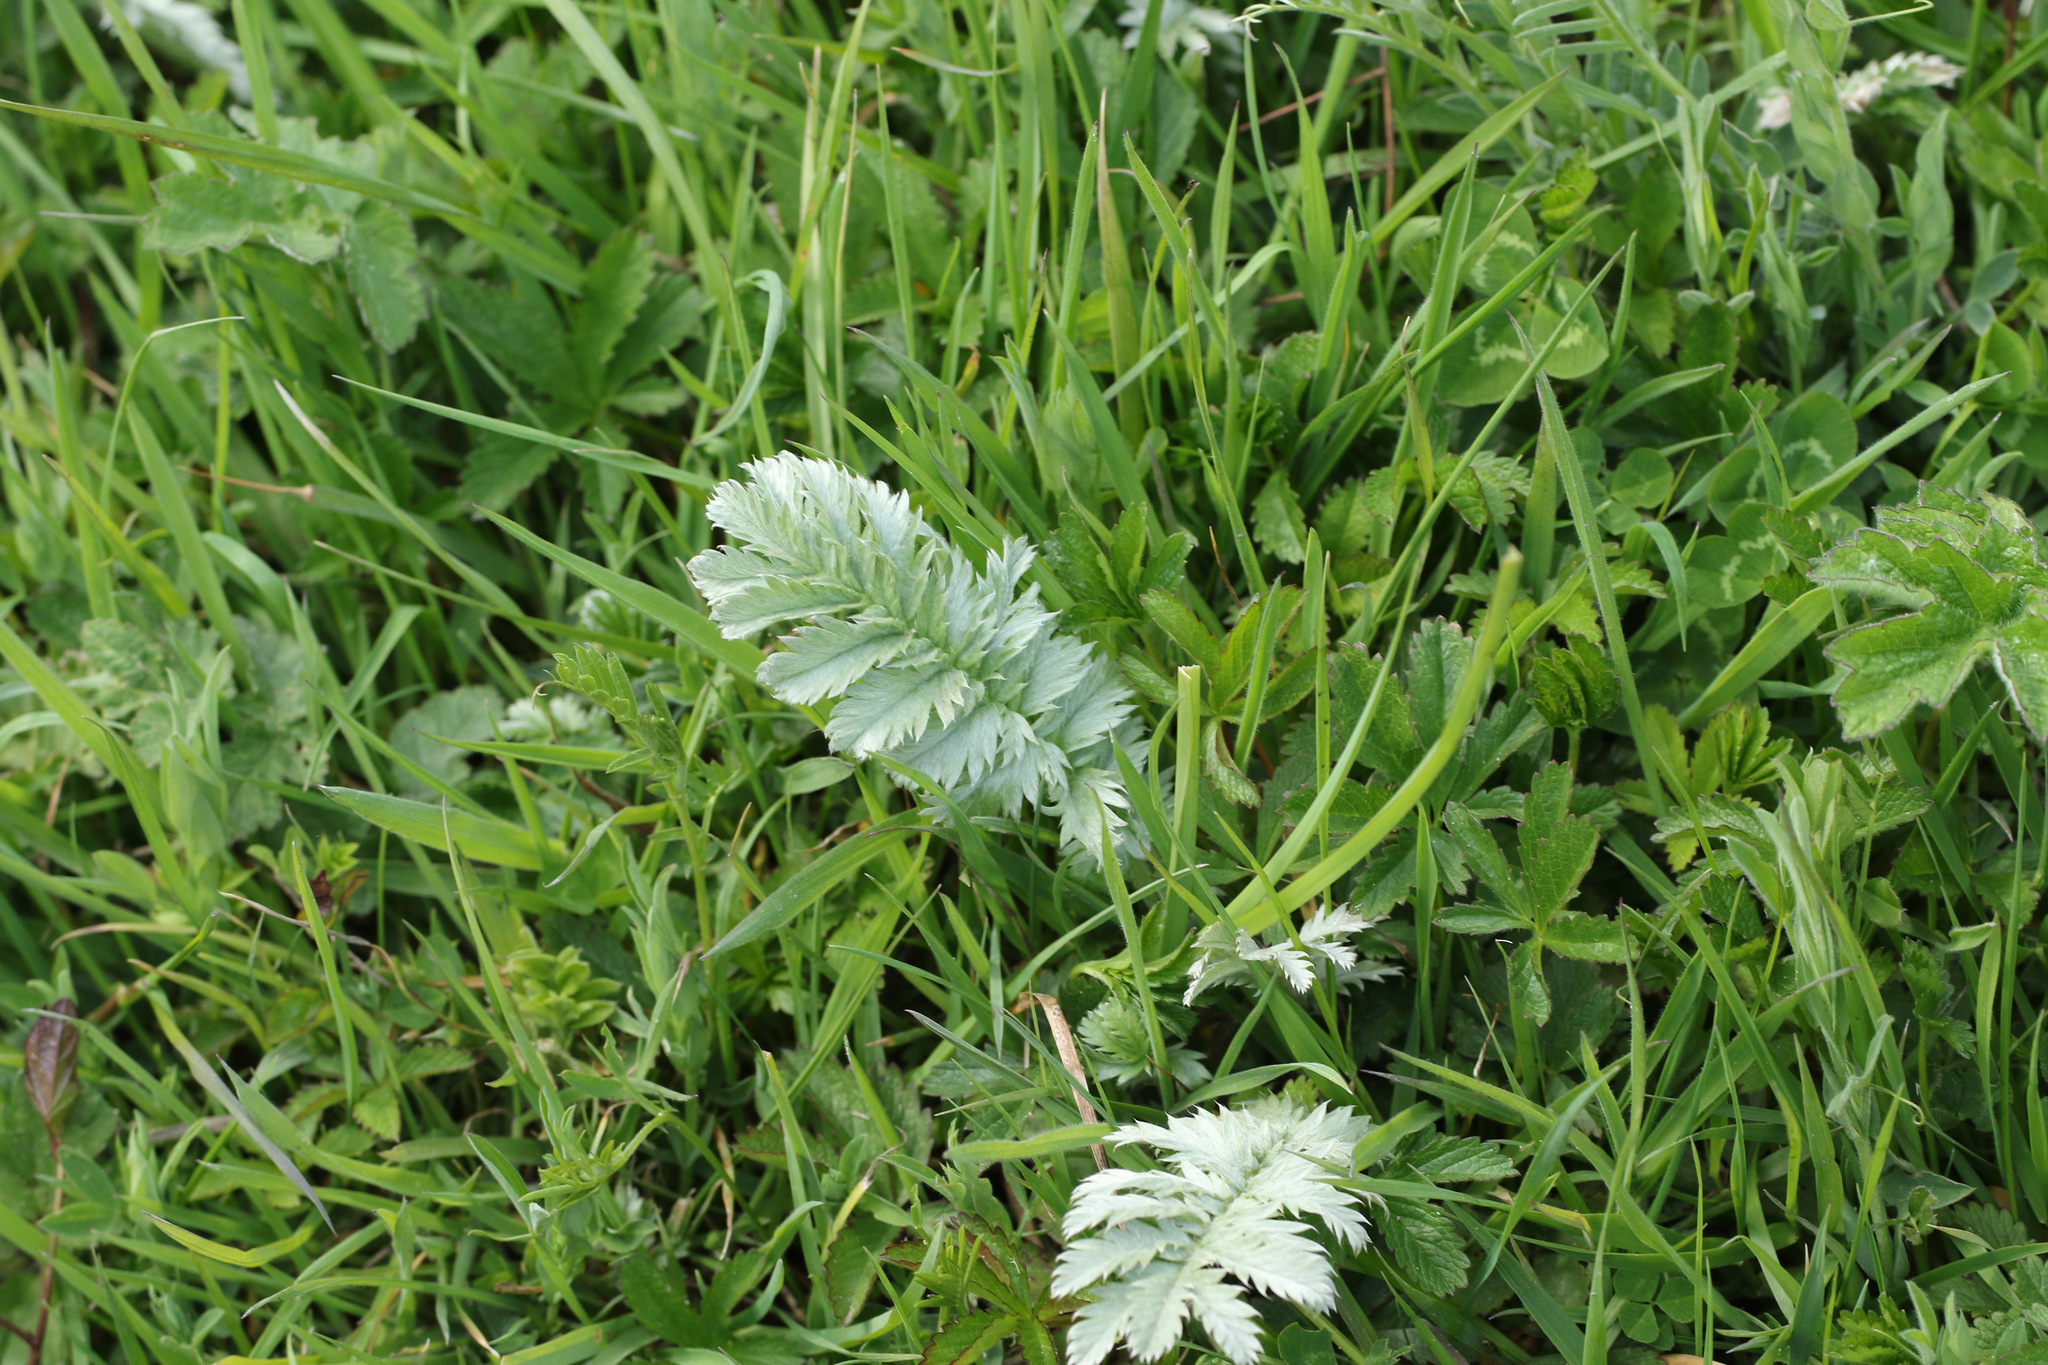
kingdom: Plantae
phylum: Tracheophyta
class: Magnoliopsida
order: Rosales
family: Rosaceae
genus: Argentina
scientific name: Argentina anserina
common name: Common silverweed
